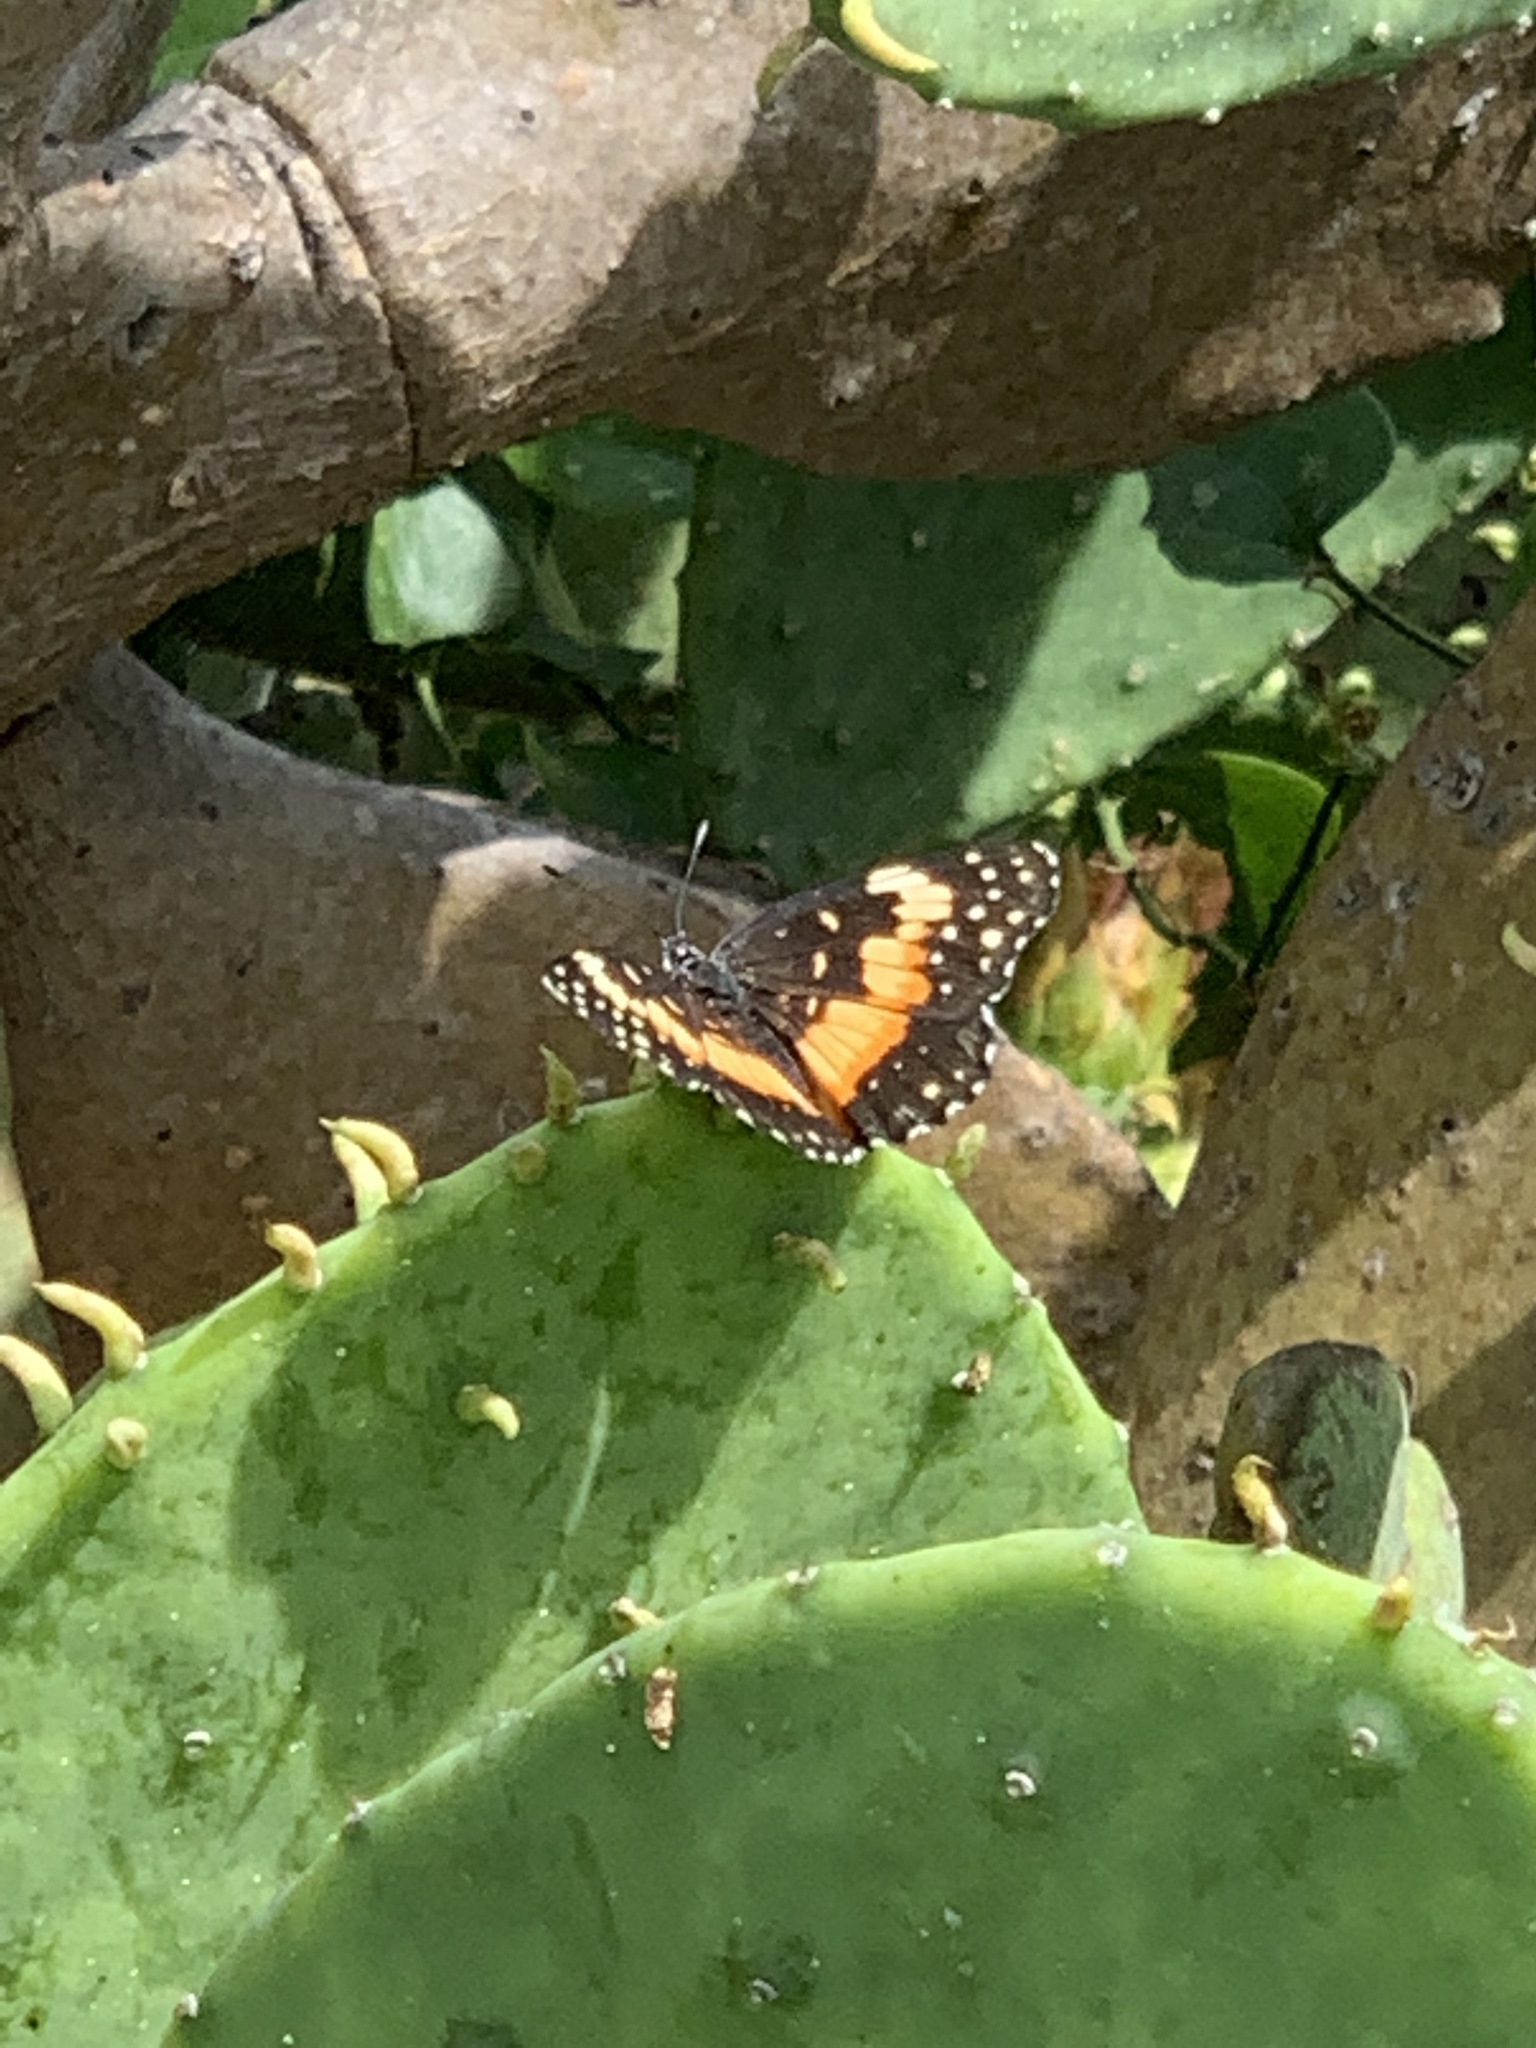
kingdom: Animalia
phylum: Arthropoda
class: Insecta
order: Lepidoptera
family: Nymphalidae
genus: Chlosyne
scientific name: Chlosyne lacinia
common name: Bordered patch
